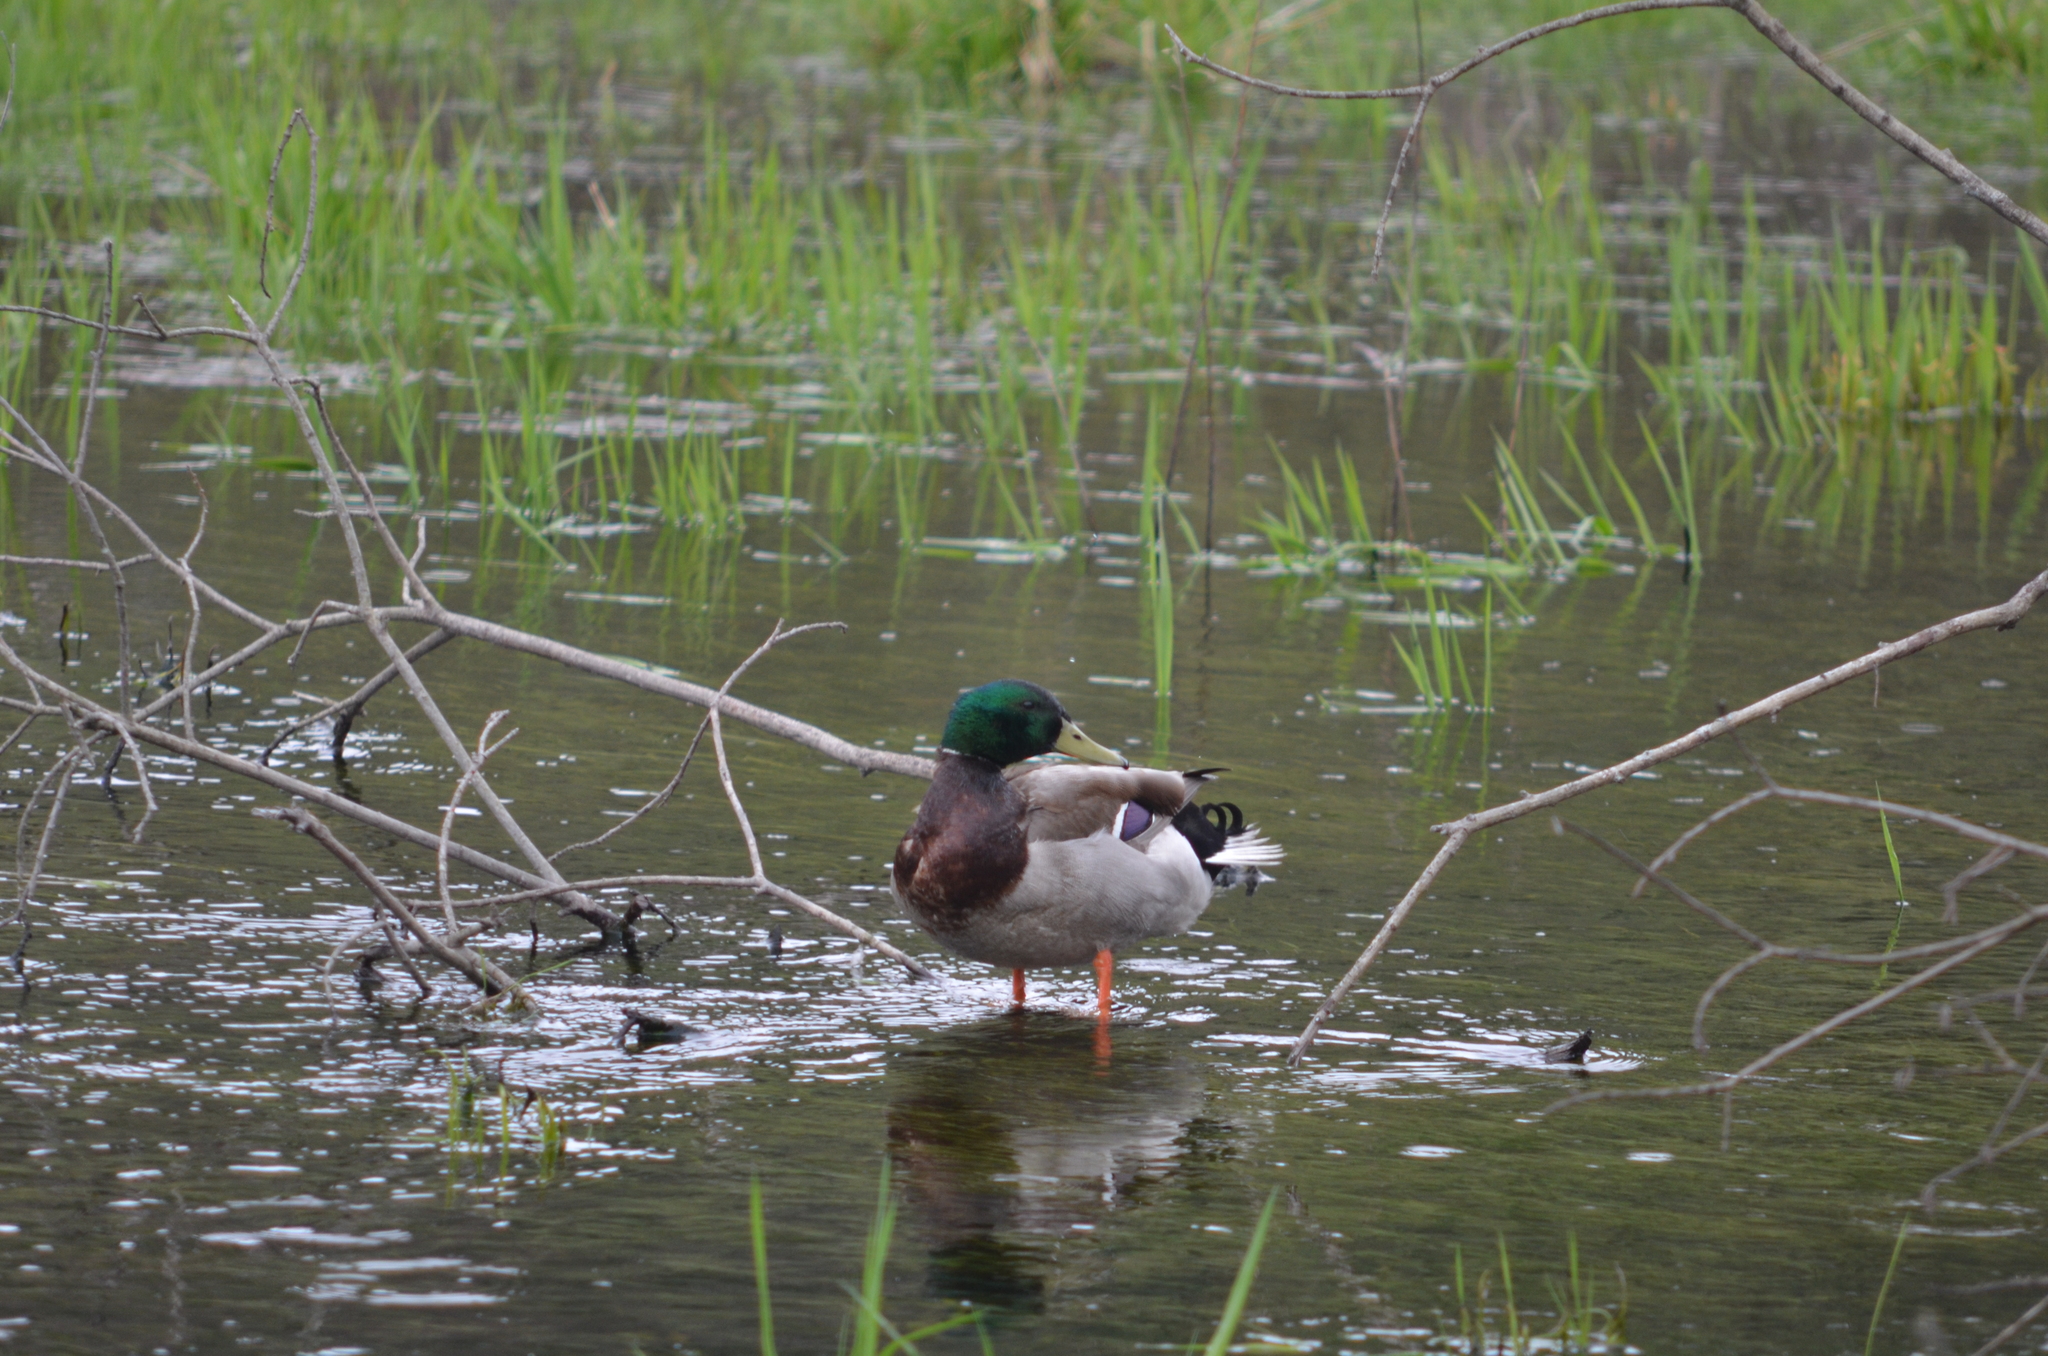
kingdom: Animalia
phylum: Chordata
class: Aves
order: Anseriformes
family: Anatidae
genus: Anas
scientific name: Anas platyrhynchos
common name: Mallard
